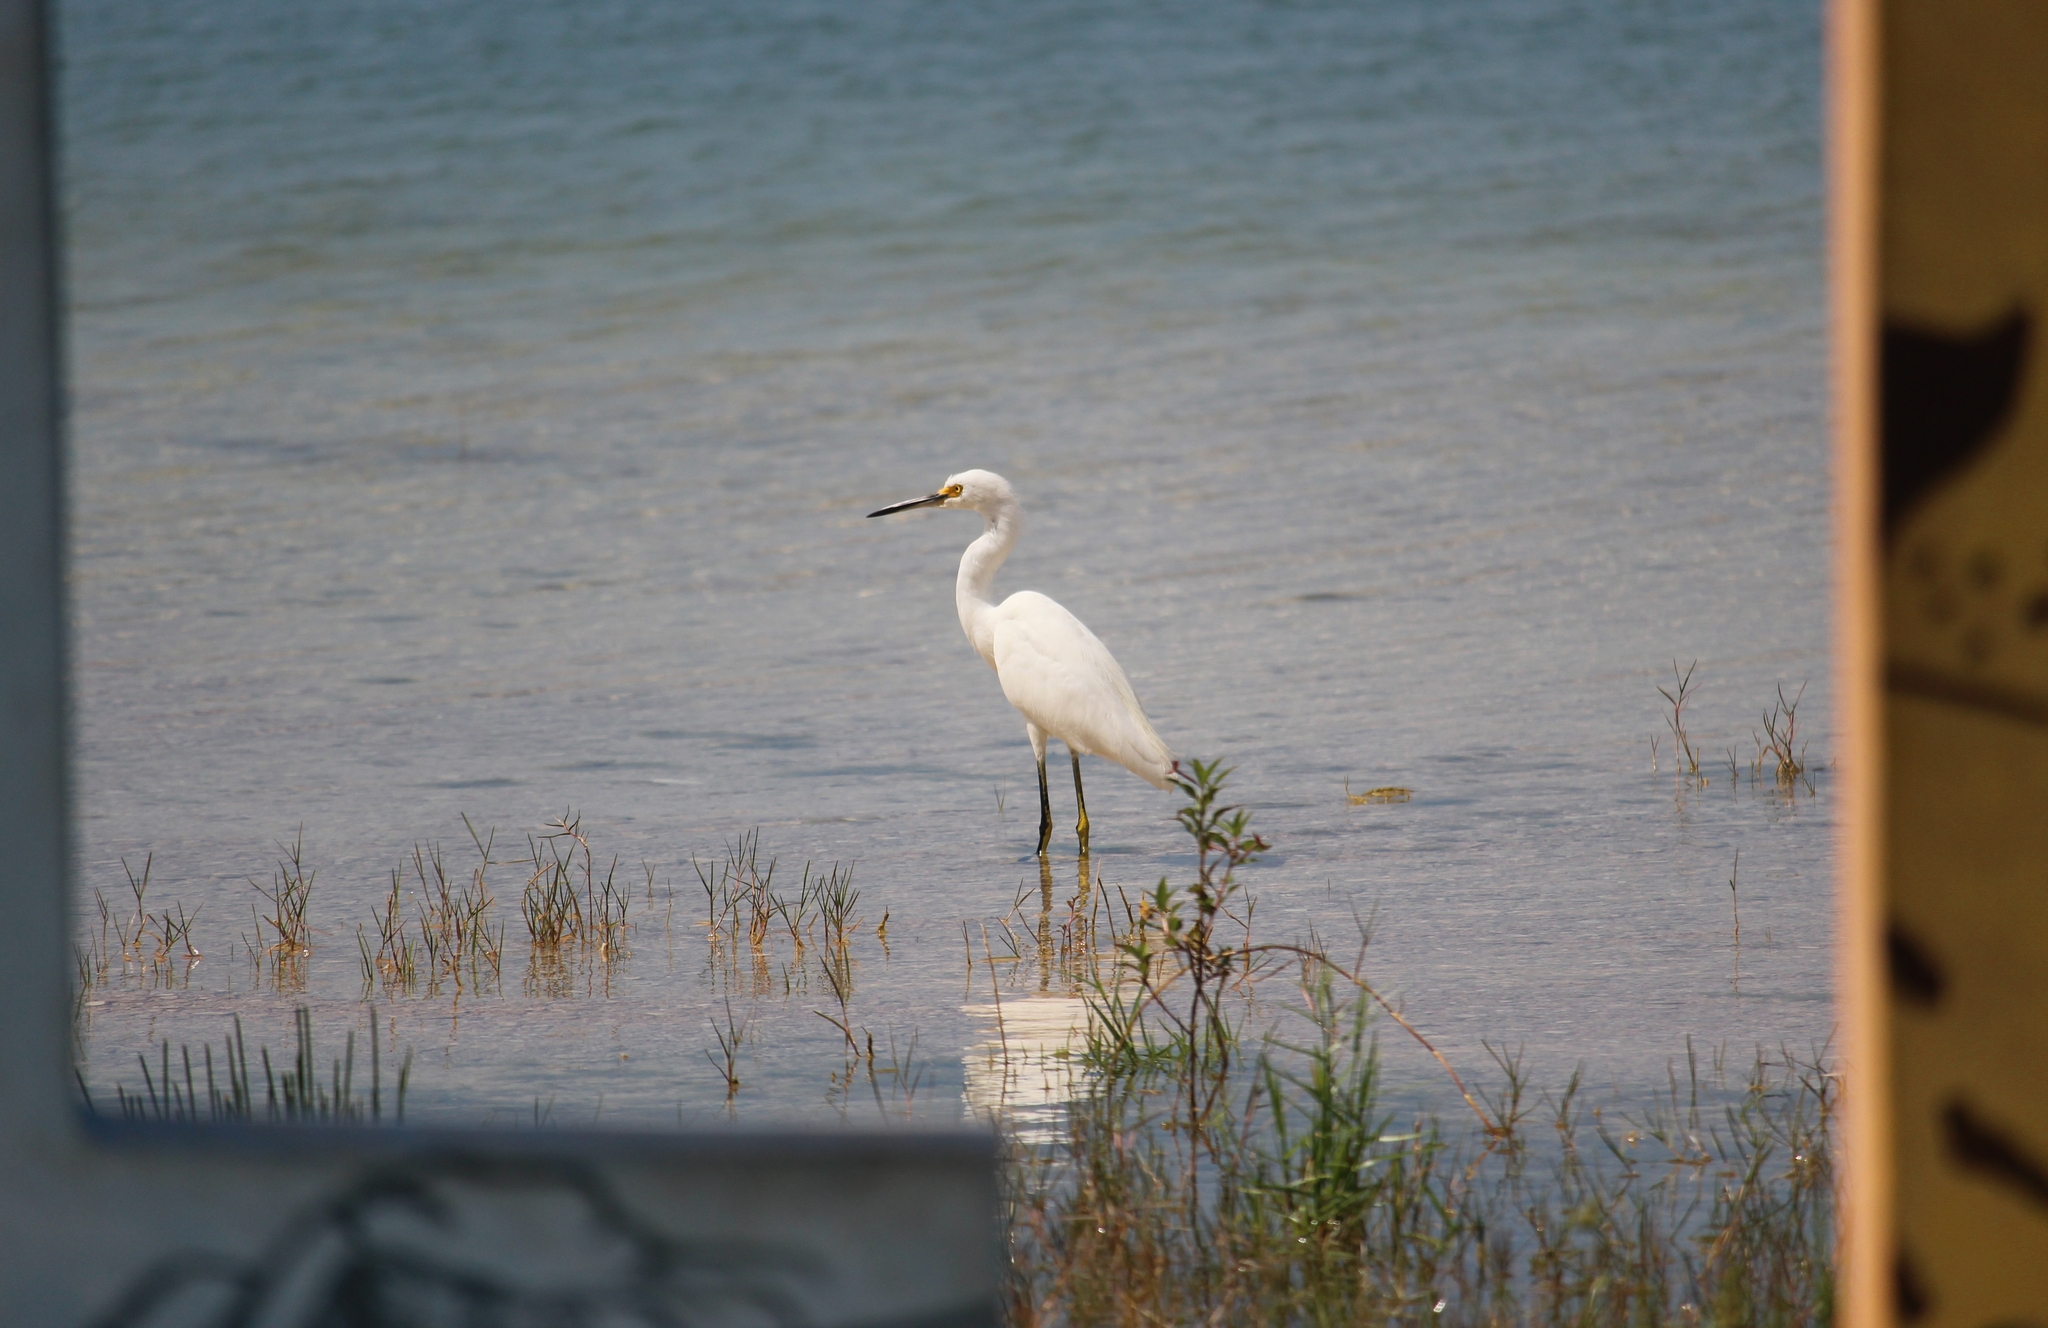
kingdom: Animalia
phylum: Chordata
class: Aves
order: Pelecaniformes
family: Ardeidae
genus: Egretta
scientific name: Egretta thula
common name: Snowy egret
